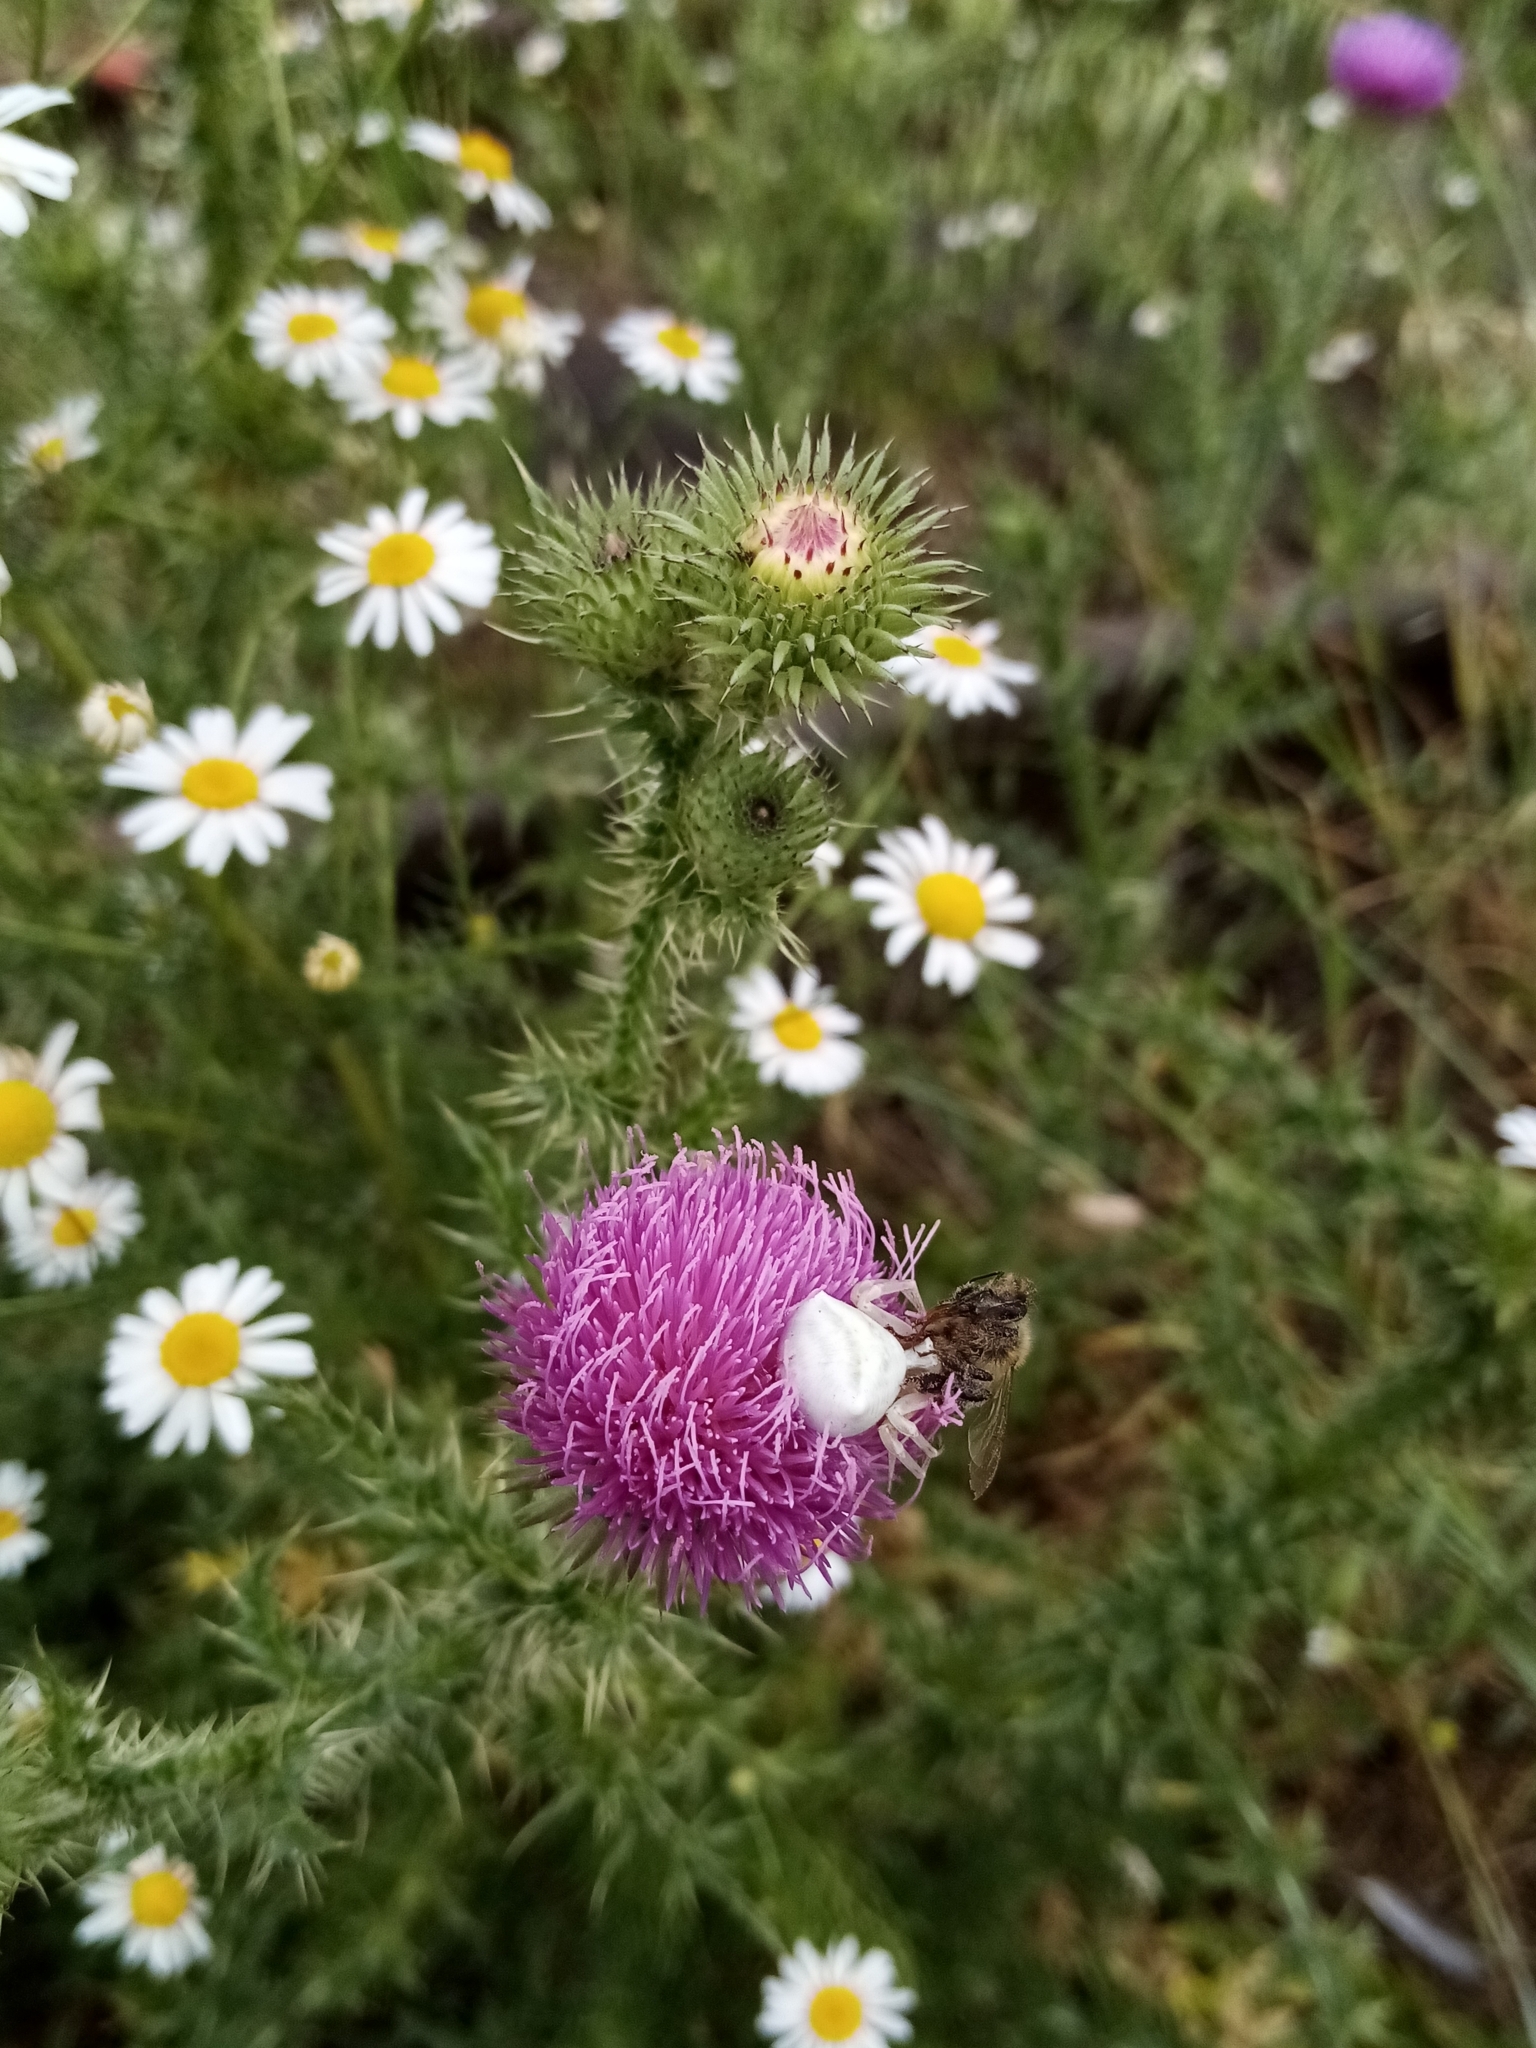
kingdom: Plantae
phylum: Tracheophyta
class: Magnoliopsida
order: Asterales
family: Asteraceae
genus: Carduus
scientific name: Carduus acanthoides
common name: Plumeless thistle
